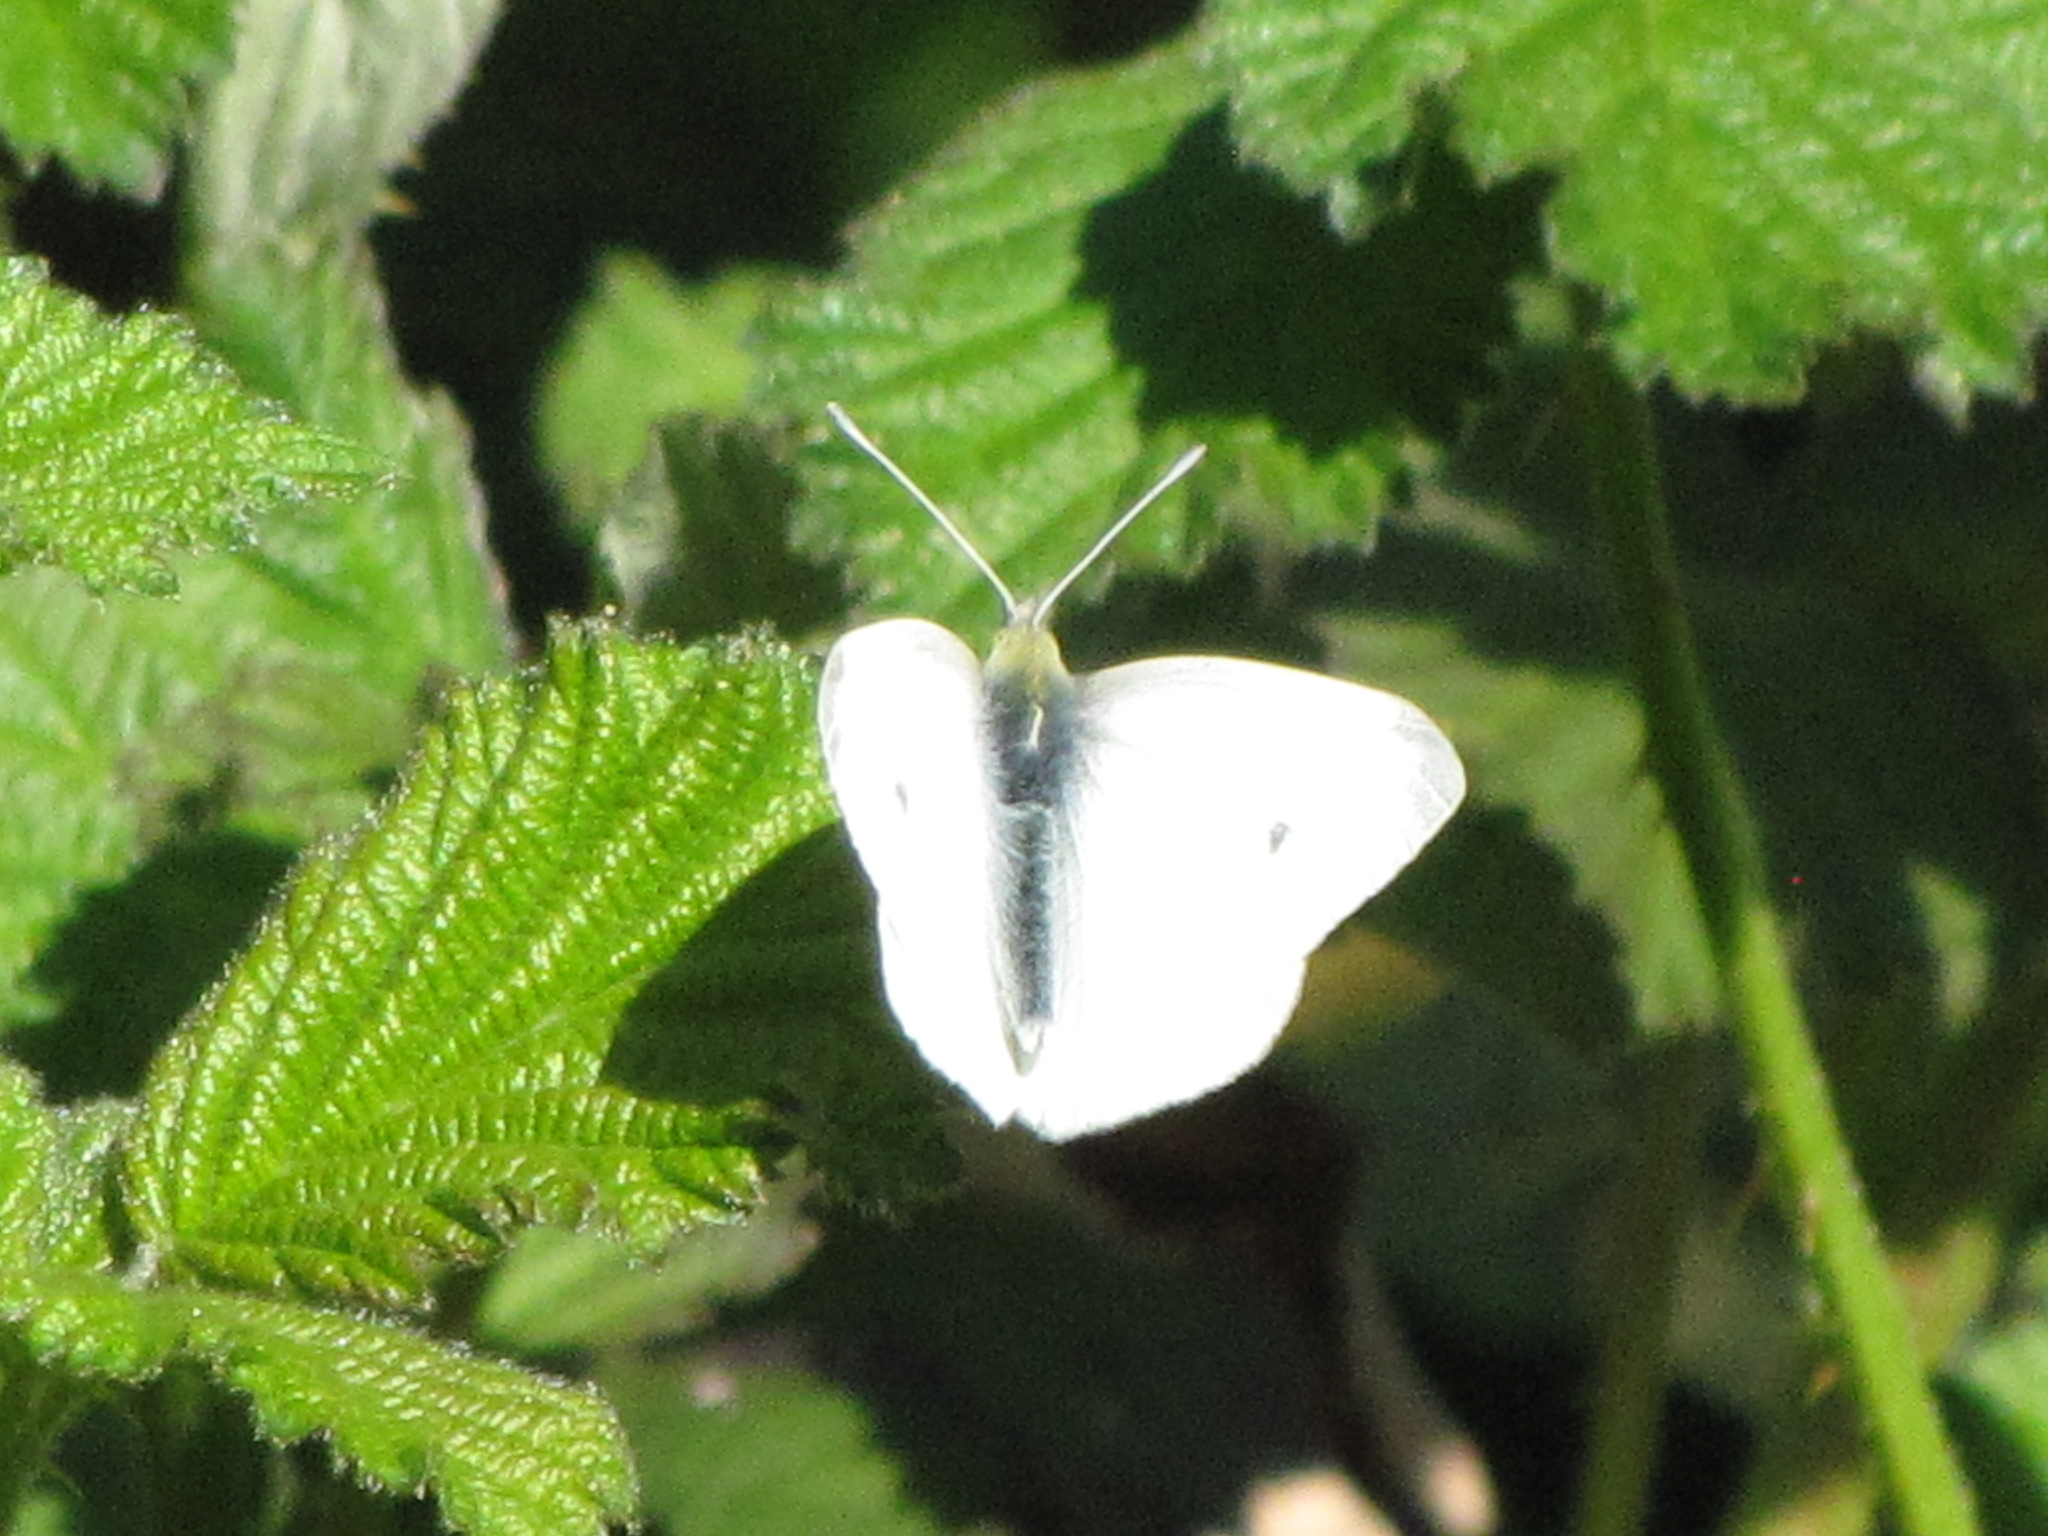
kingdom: Animalia
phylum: Arthropoda
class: Insecta
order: Lepidoptera
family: Pieridae
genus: Pieris
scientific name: Pieris rapae
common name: Small white
